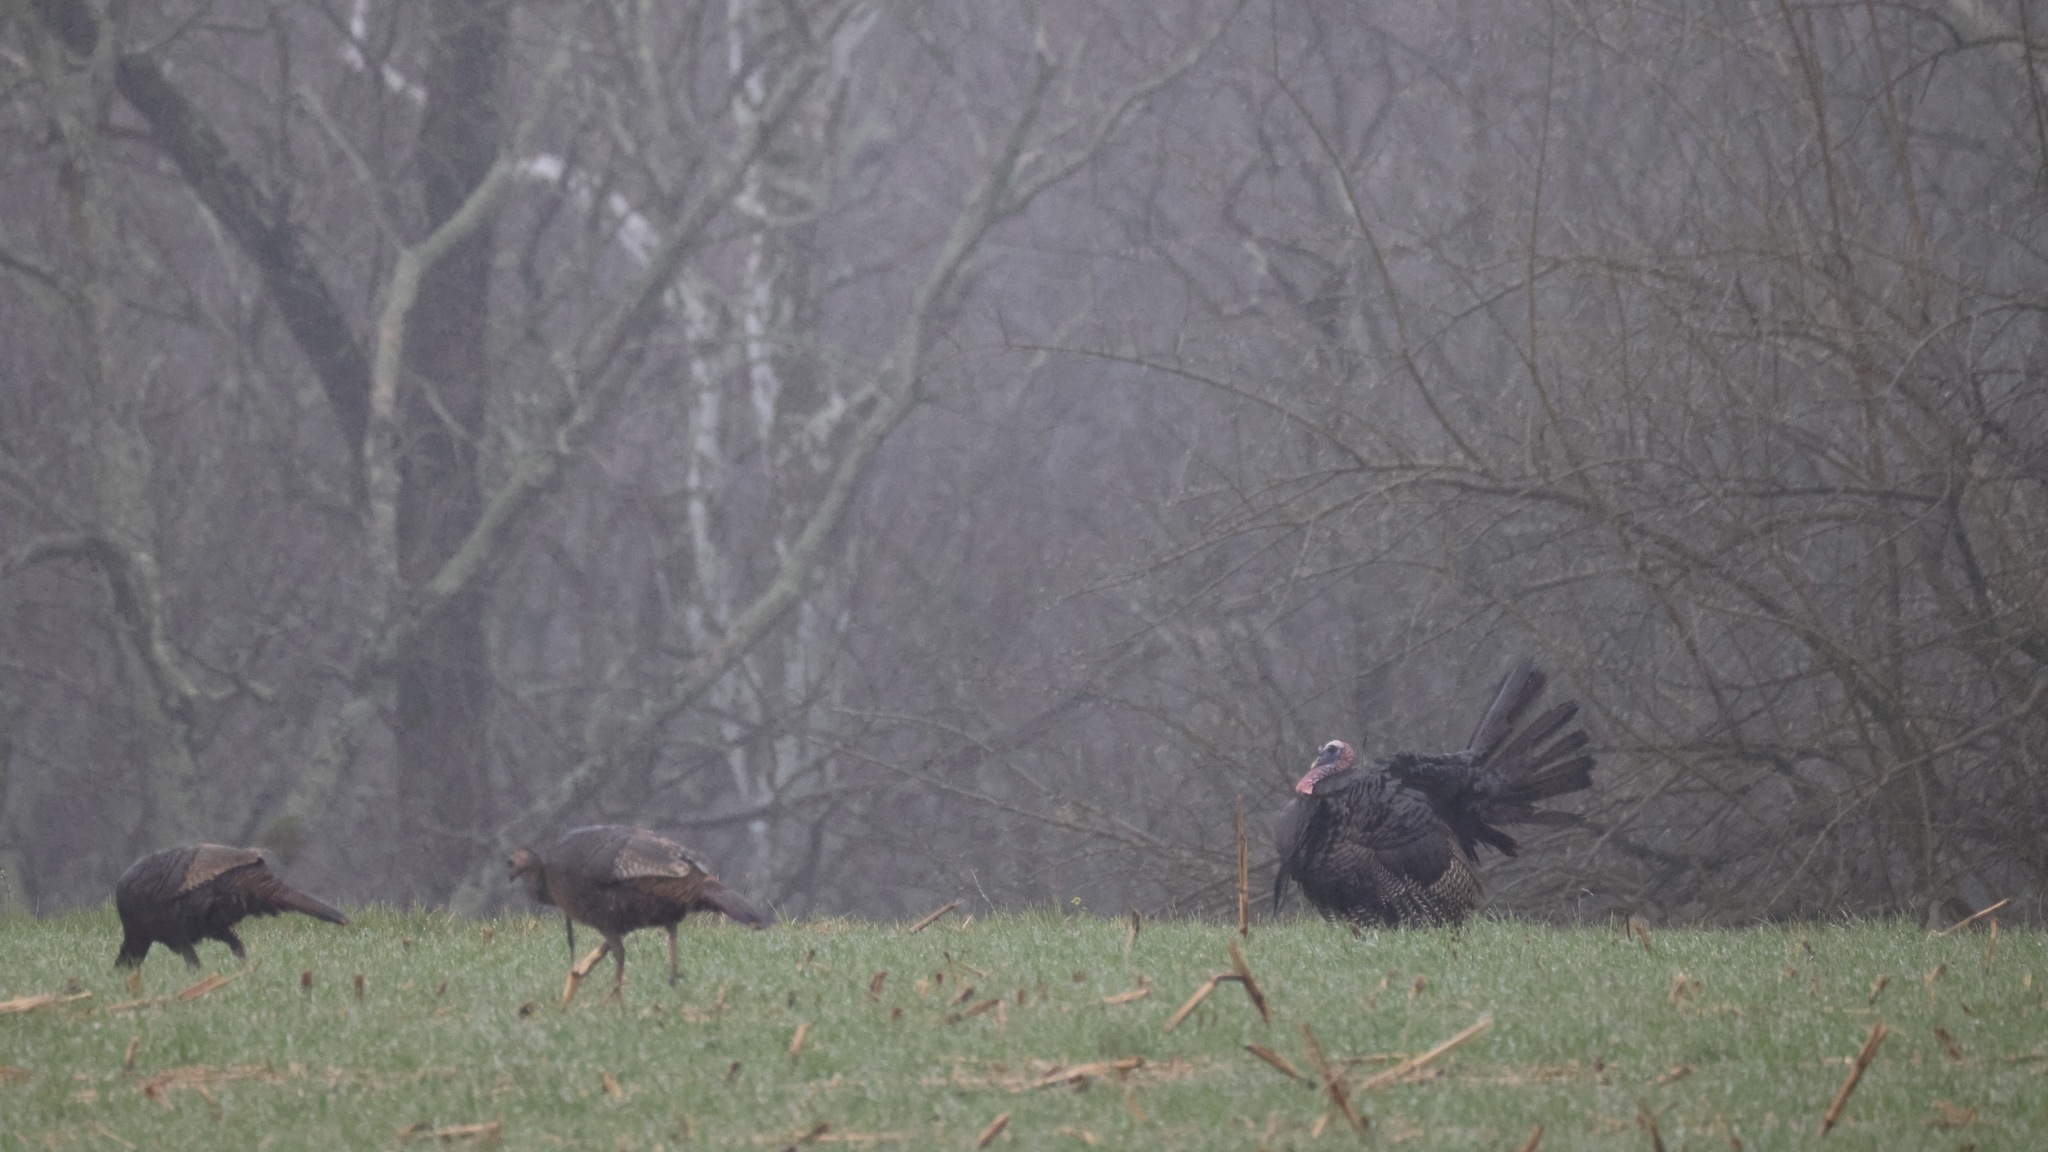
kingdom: Animalia
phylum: Chordata
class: Aves
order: Galliformes
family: Phasianidae
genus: Meleagris
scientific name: Meleagris gallopavo
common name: Wild turkey
